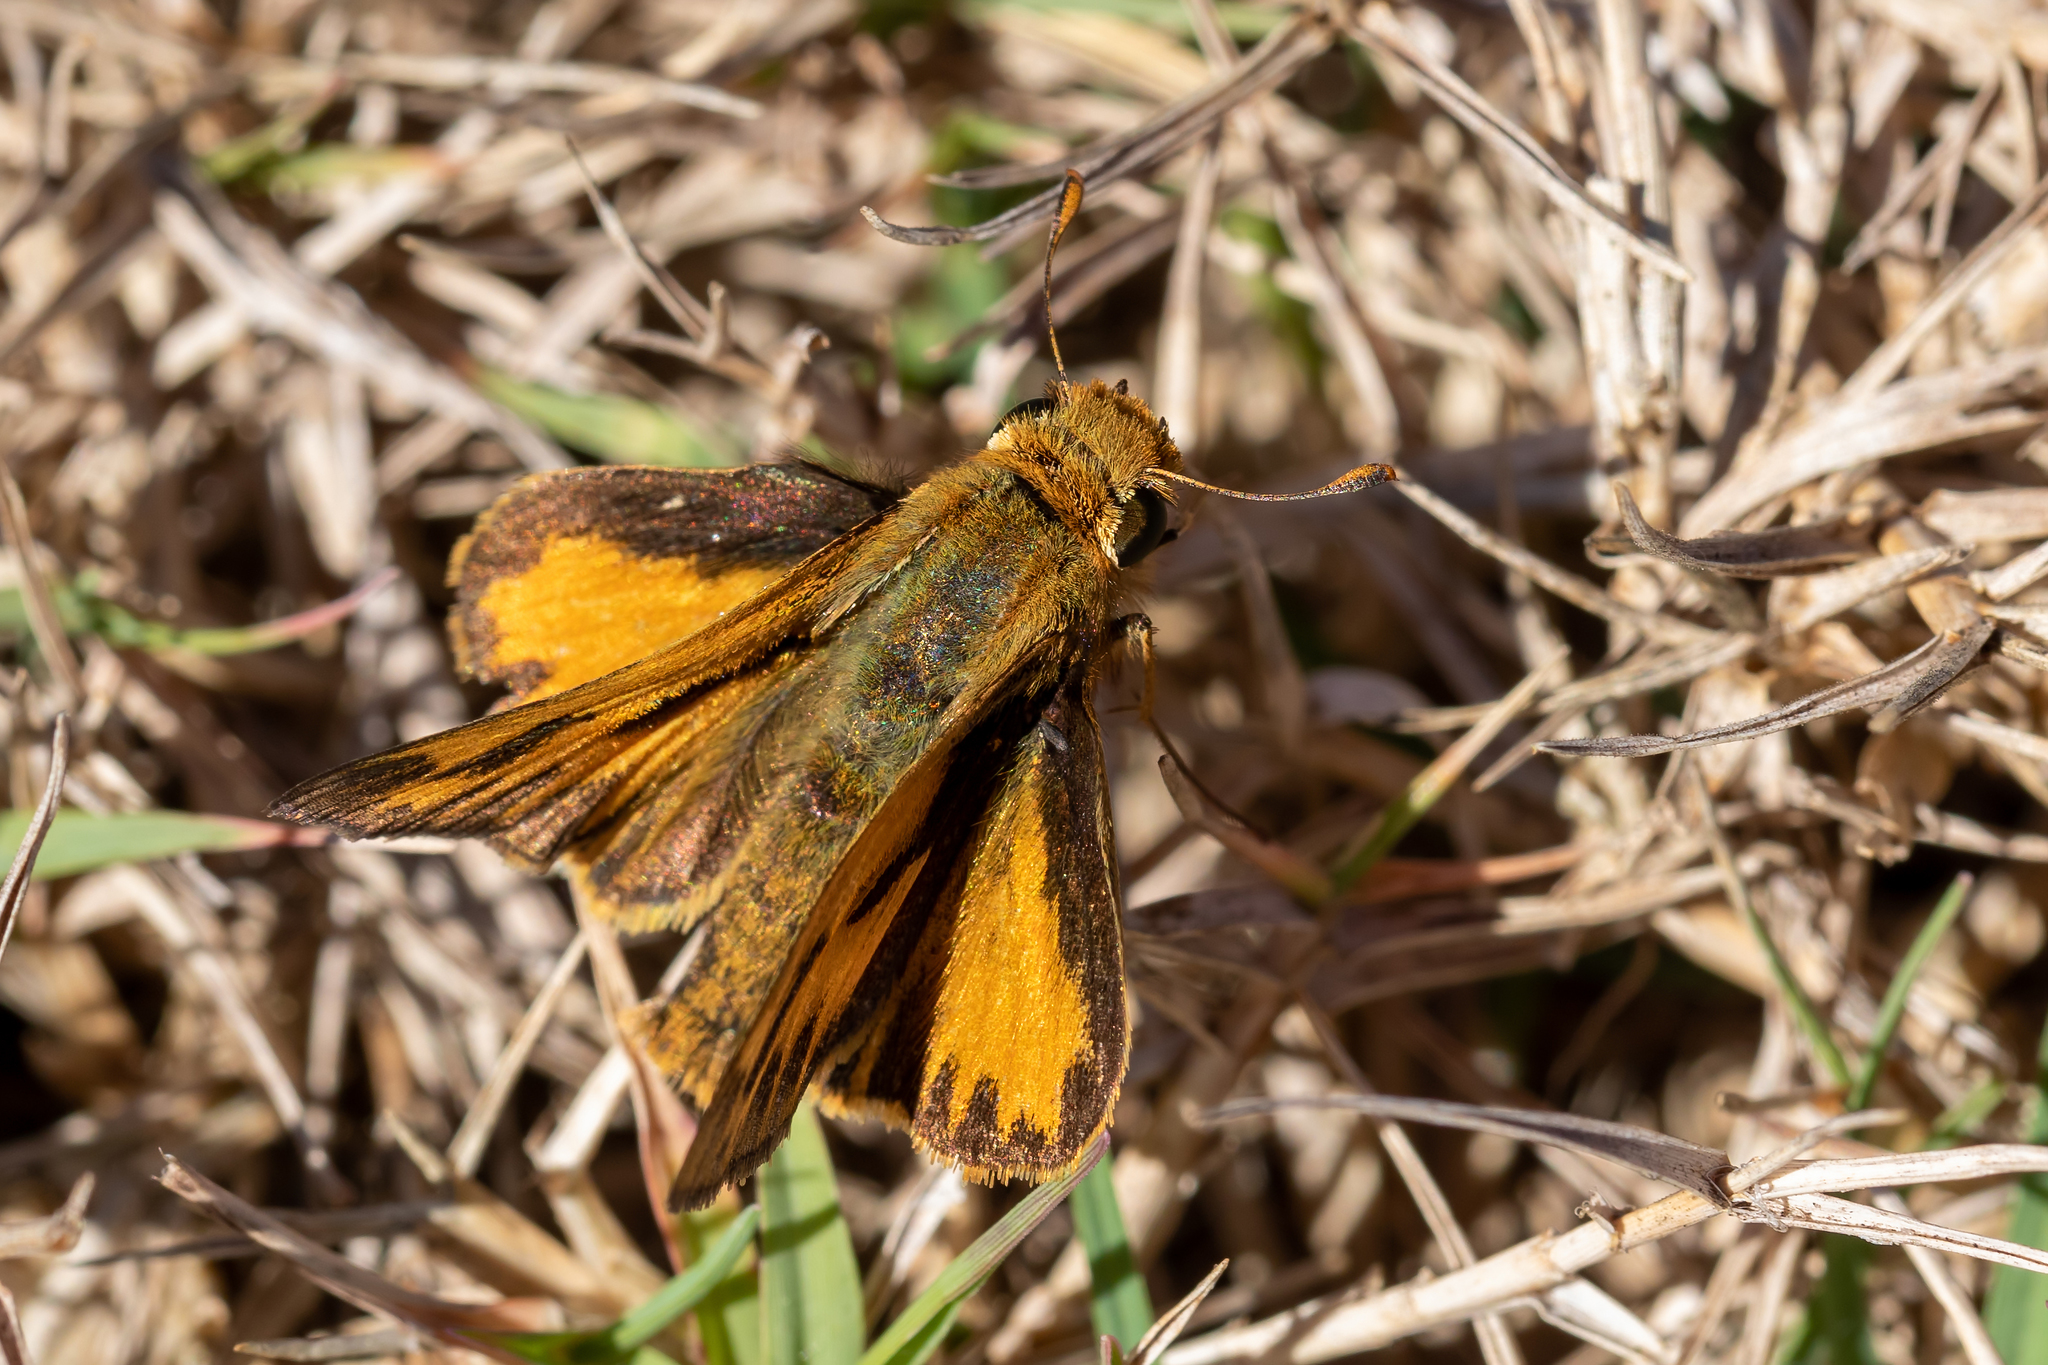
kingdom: Animalia
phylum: Arthropoda
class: Insecta
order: Lepidoptera
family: Hesperiidae
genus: Hylephila
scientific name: Hylephila phyleus
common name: Fiery skipper
